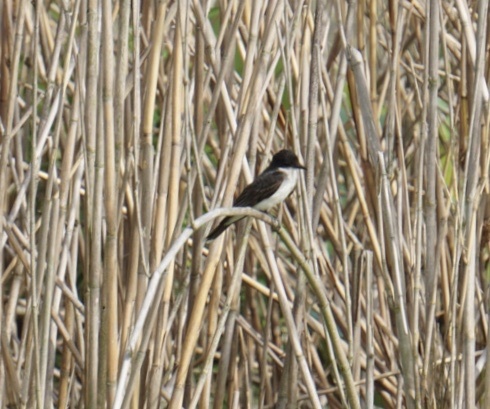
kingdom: Animalia
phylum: Chordata
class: Aves
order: Passeriformes
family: Tyrannidae
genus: Tyrannus
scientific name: Tyrannus tyrannus
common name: Eastern kingbird
